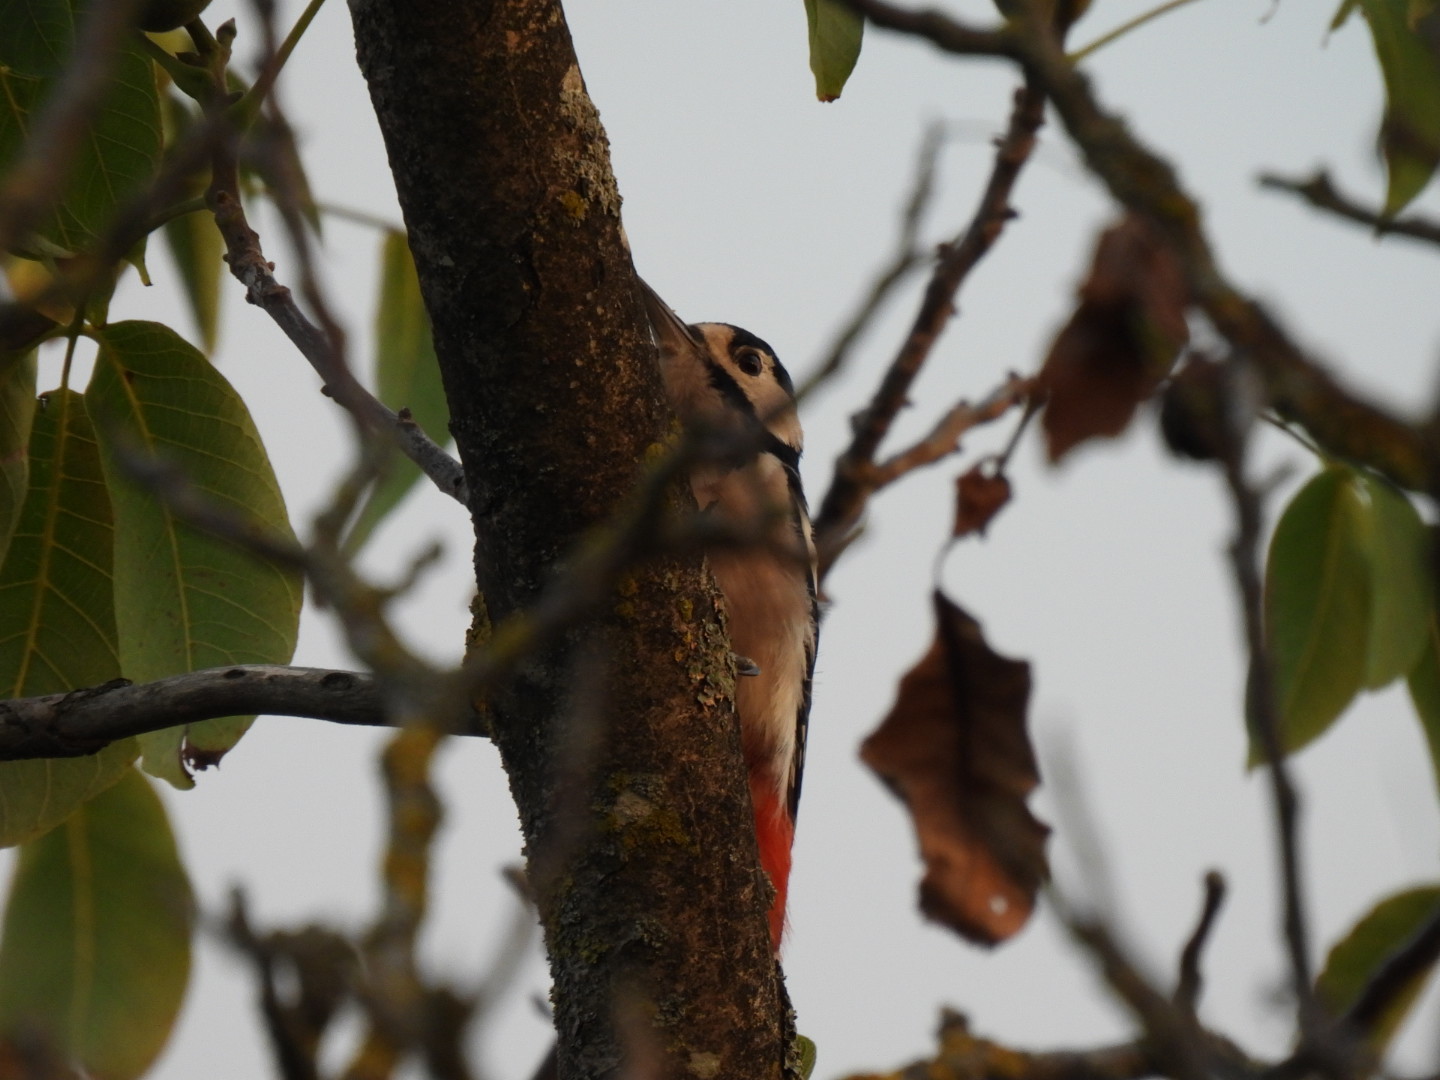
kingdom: Animalia
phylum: Chordata
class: Aves
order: Piciformes
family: Picidae
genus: Dendrocopos
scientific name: Dendrocopos major
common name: Great spotted woodpecker
